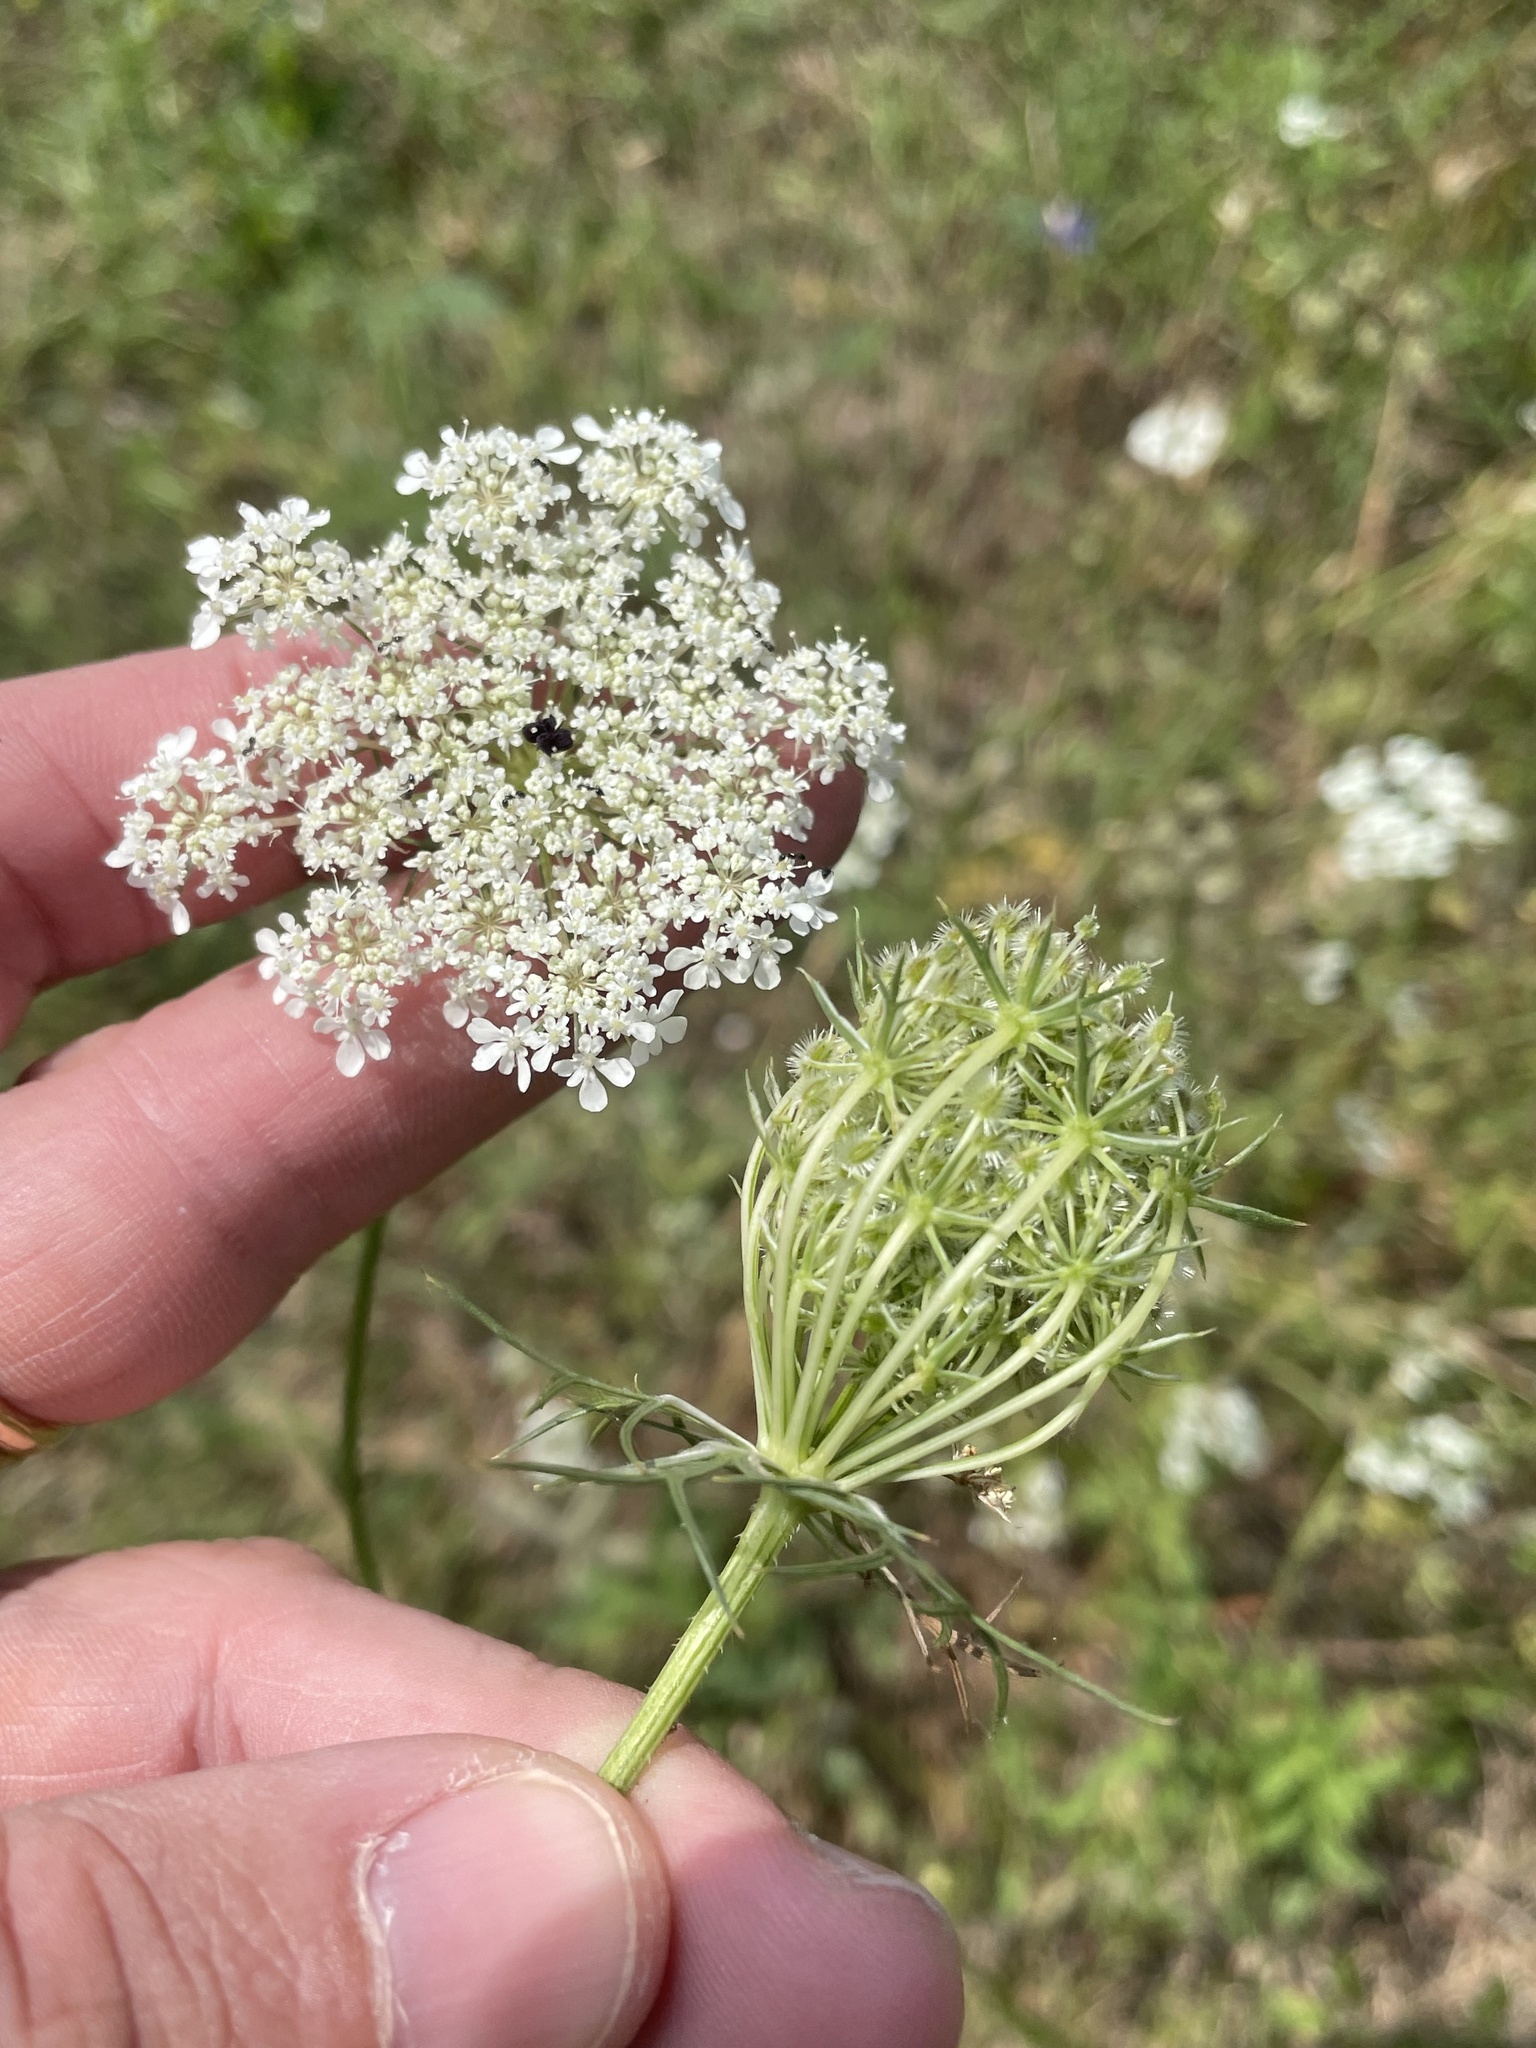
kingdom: Plantae
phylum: Tracheophyta
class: Magnoliopsida
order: Apiales
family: Apiaceae
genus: Daucus
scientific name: Daucus carota
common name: Wild carrot
